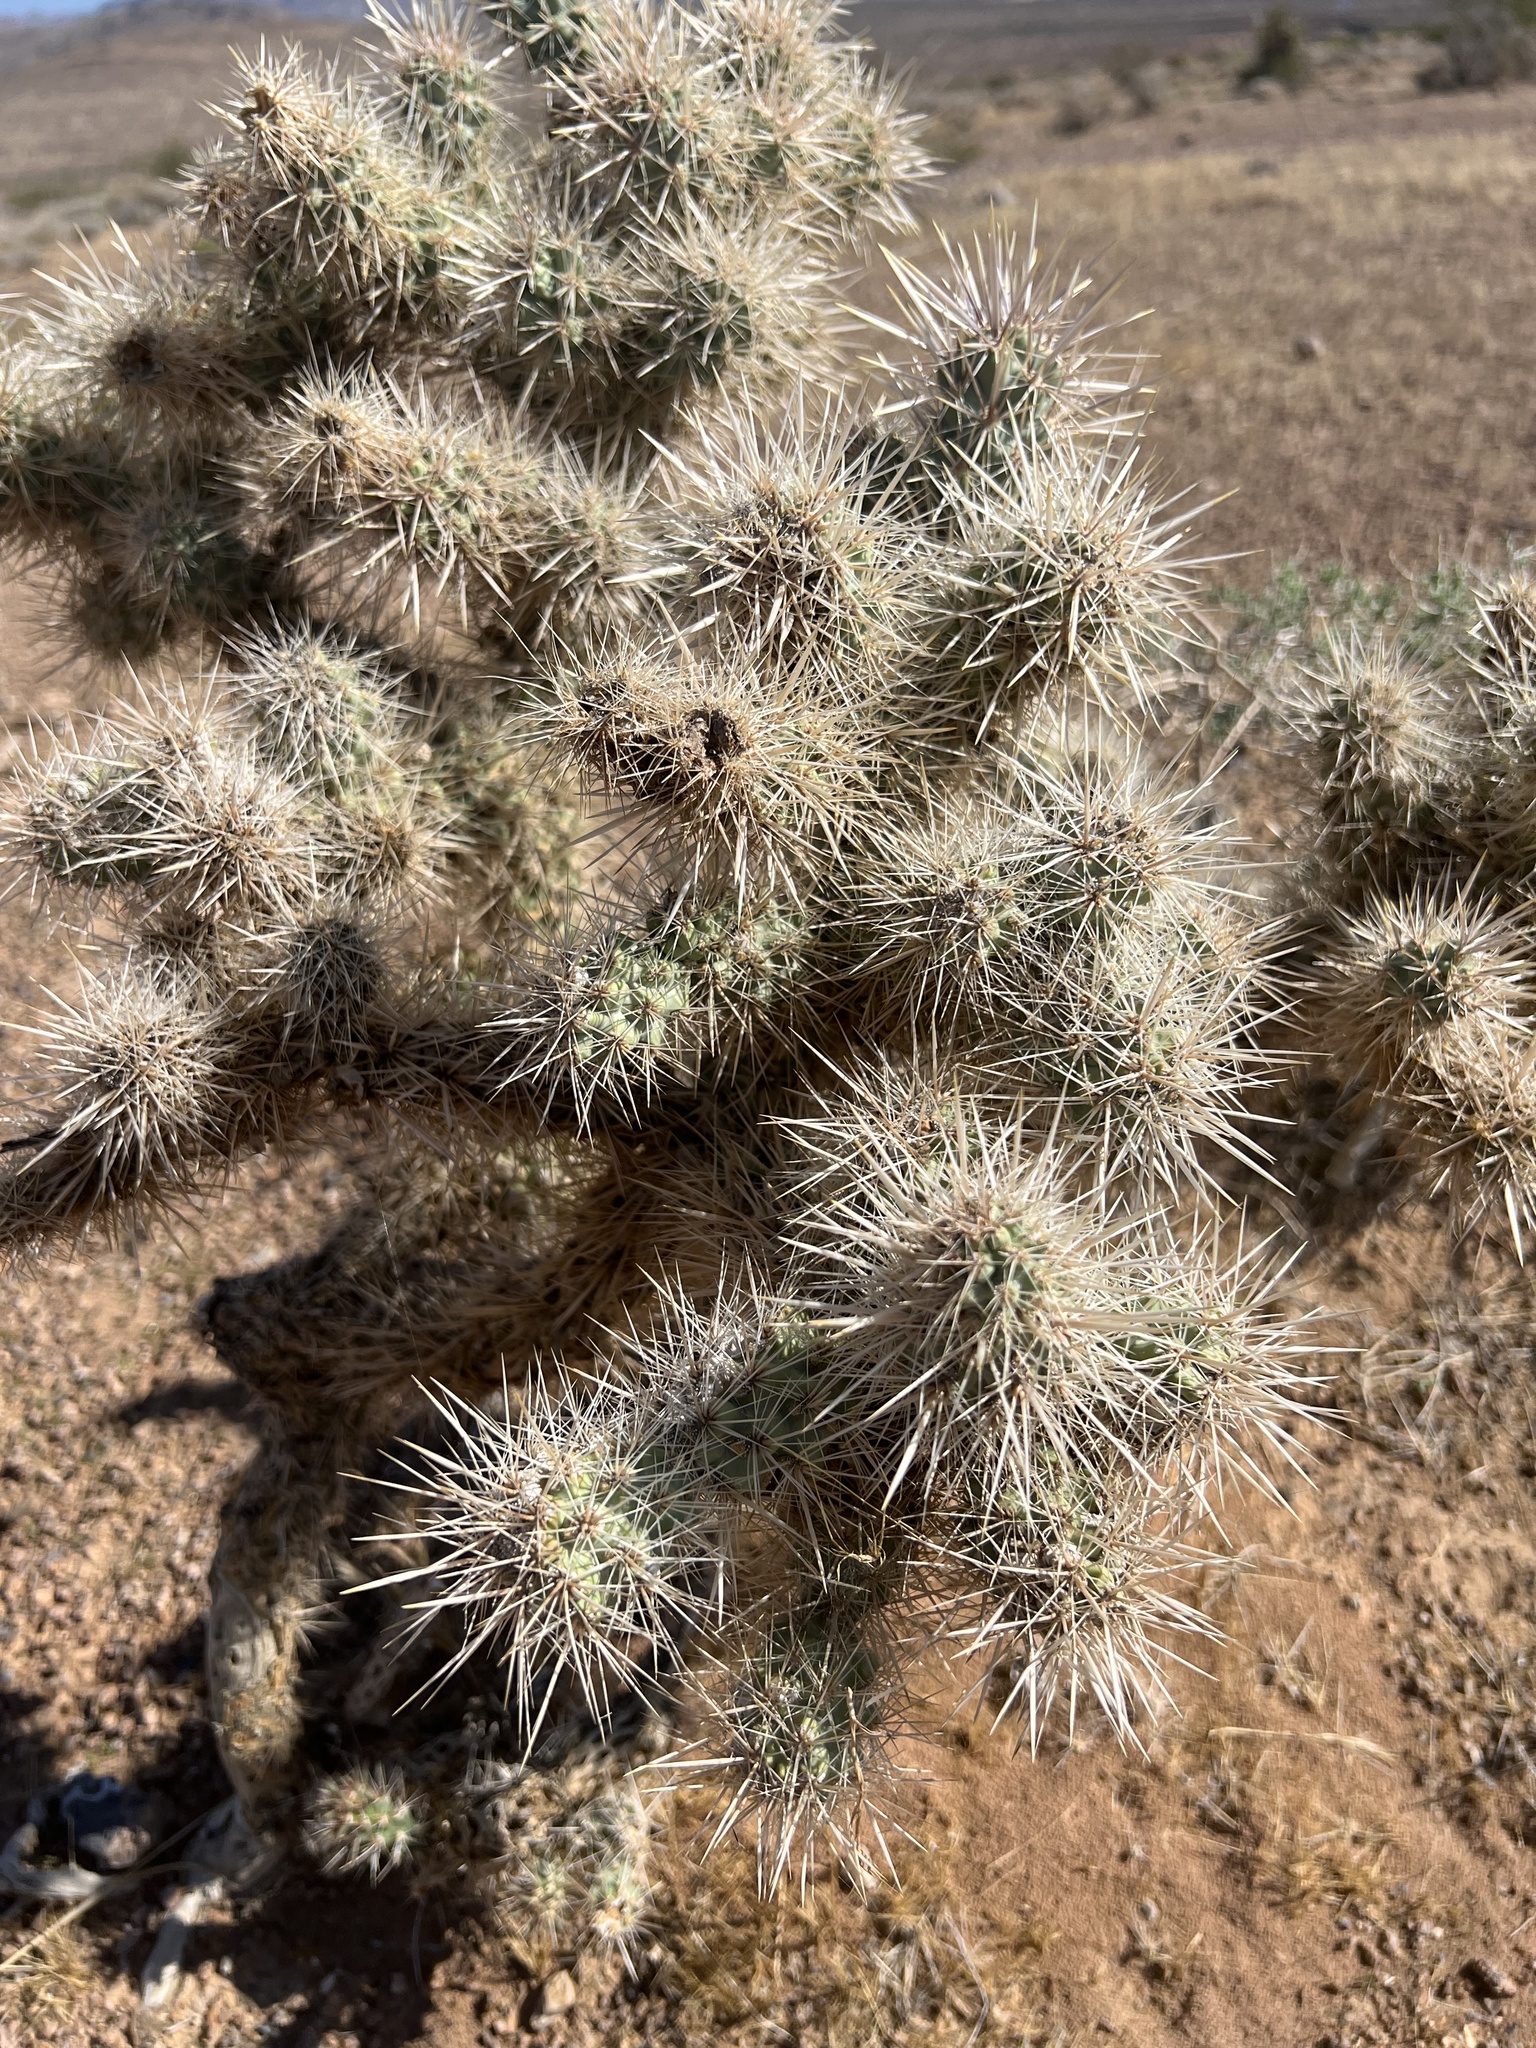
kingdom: Plantae
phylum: Tracheophyta
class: Magnoliopsida
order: Caryophyllales
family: Cactaceae
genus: Cylindropuntia
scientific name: Cylindropuntia echinocarpa
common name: Ground cholla
